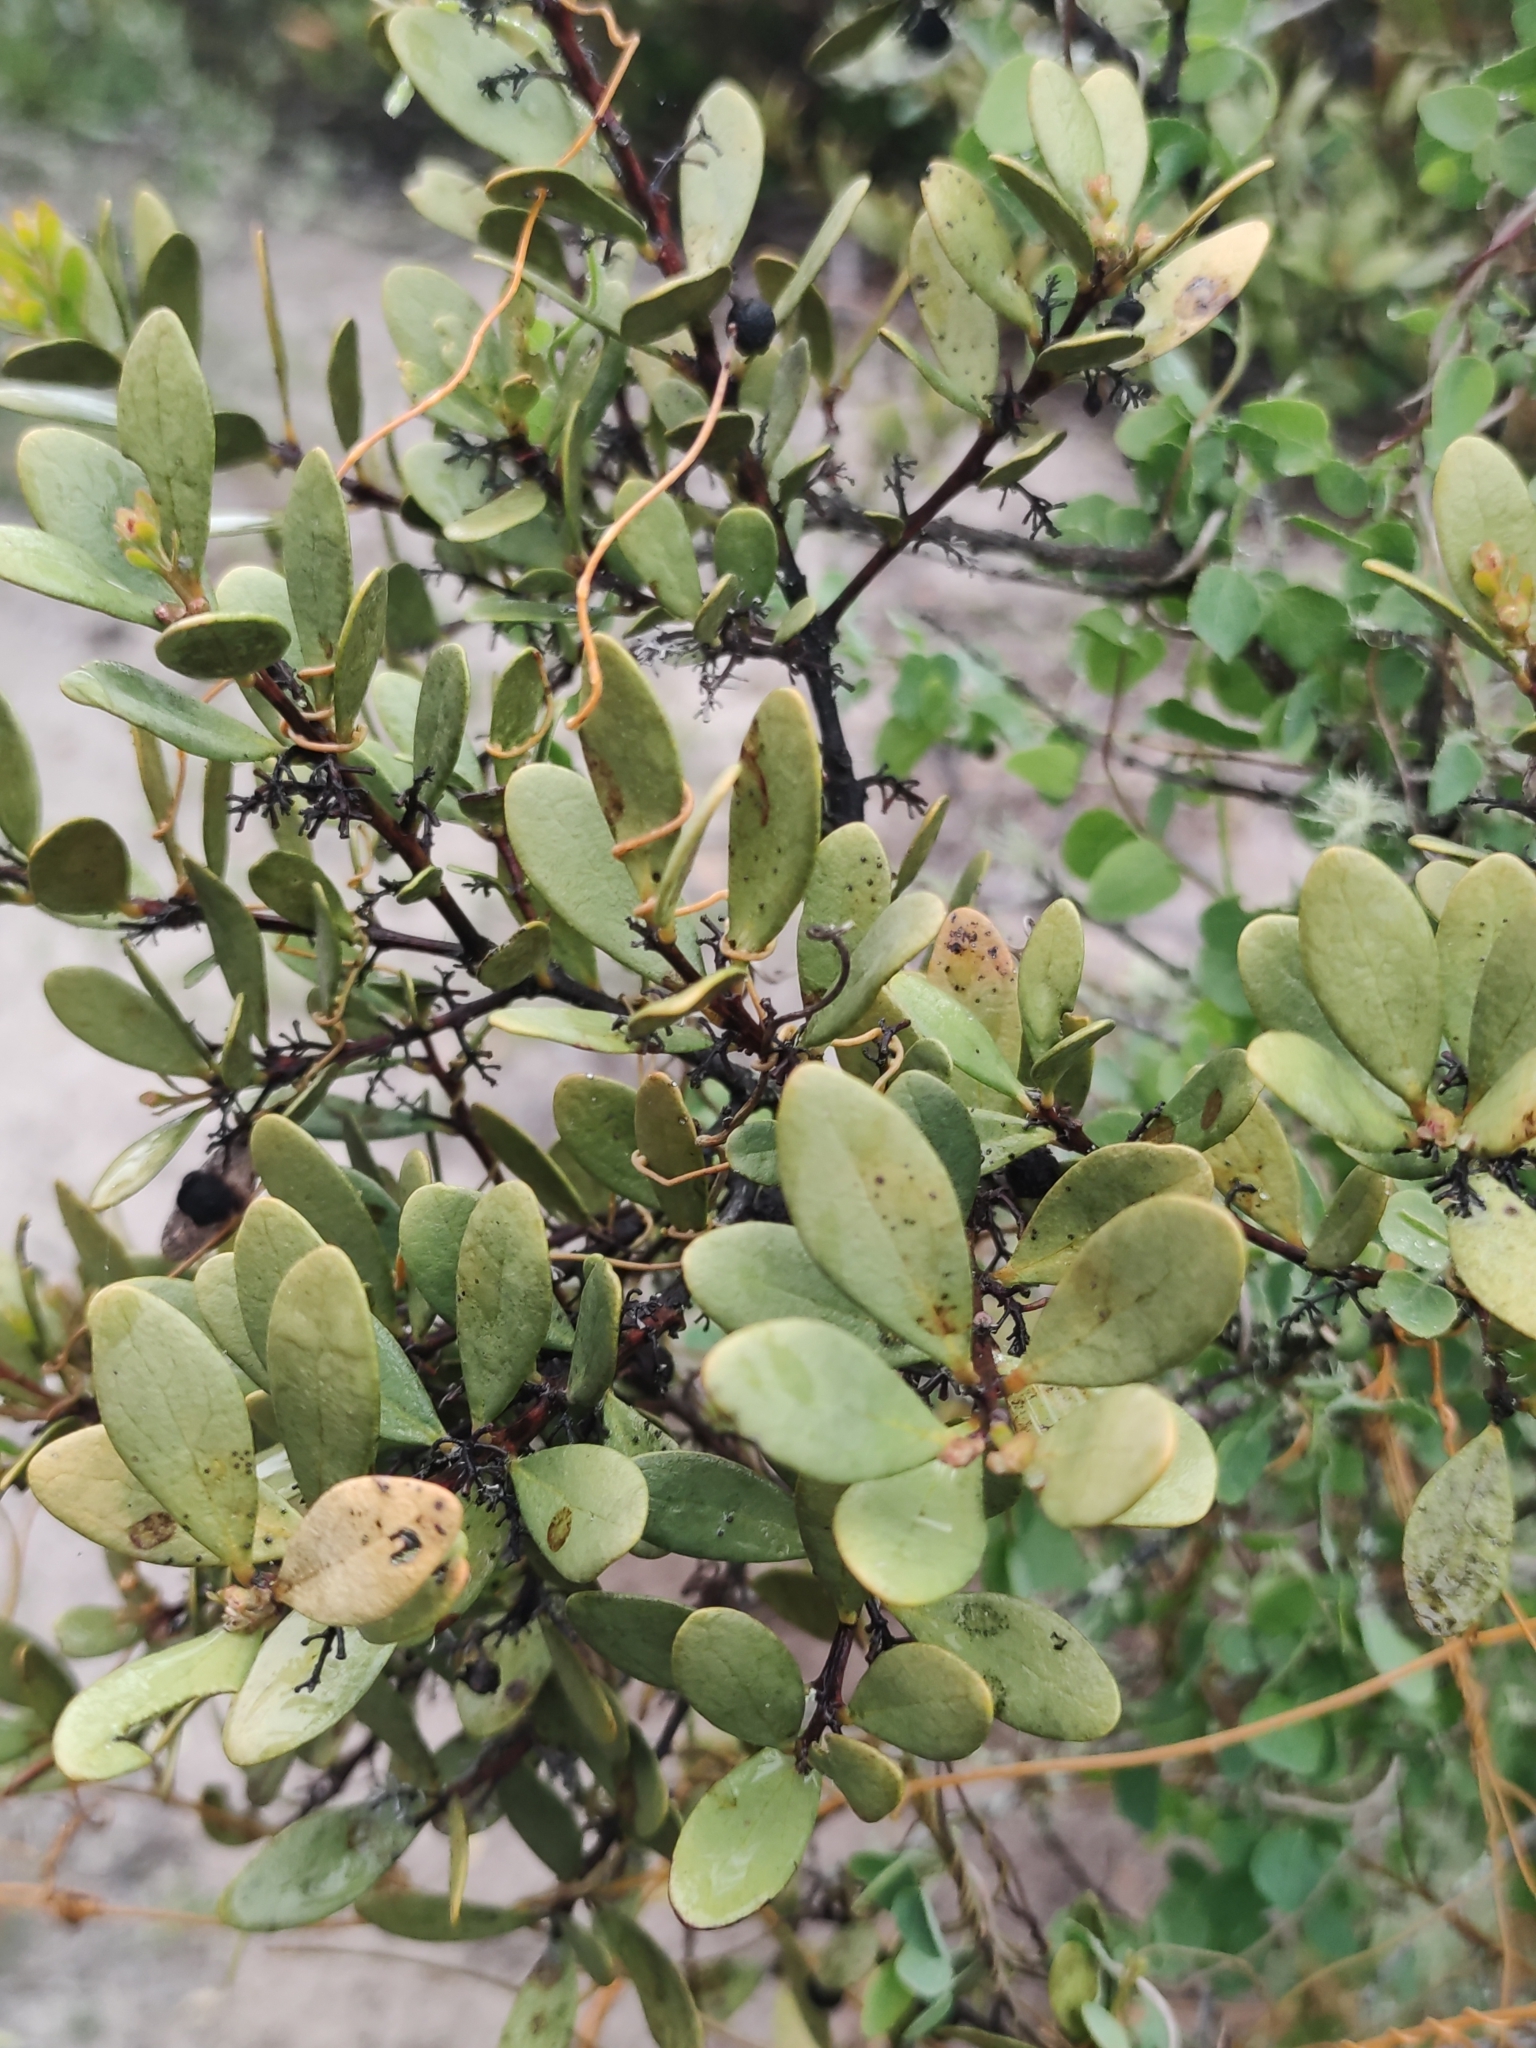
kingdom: Plantae
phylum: Tracheophyta
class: Magnoliopsida
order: Ericales
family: Ebenaceae
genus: Euclea
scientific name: Euclea racemosa
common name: Dune guarri
